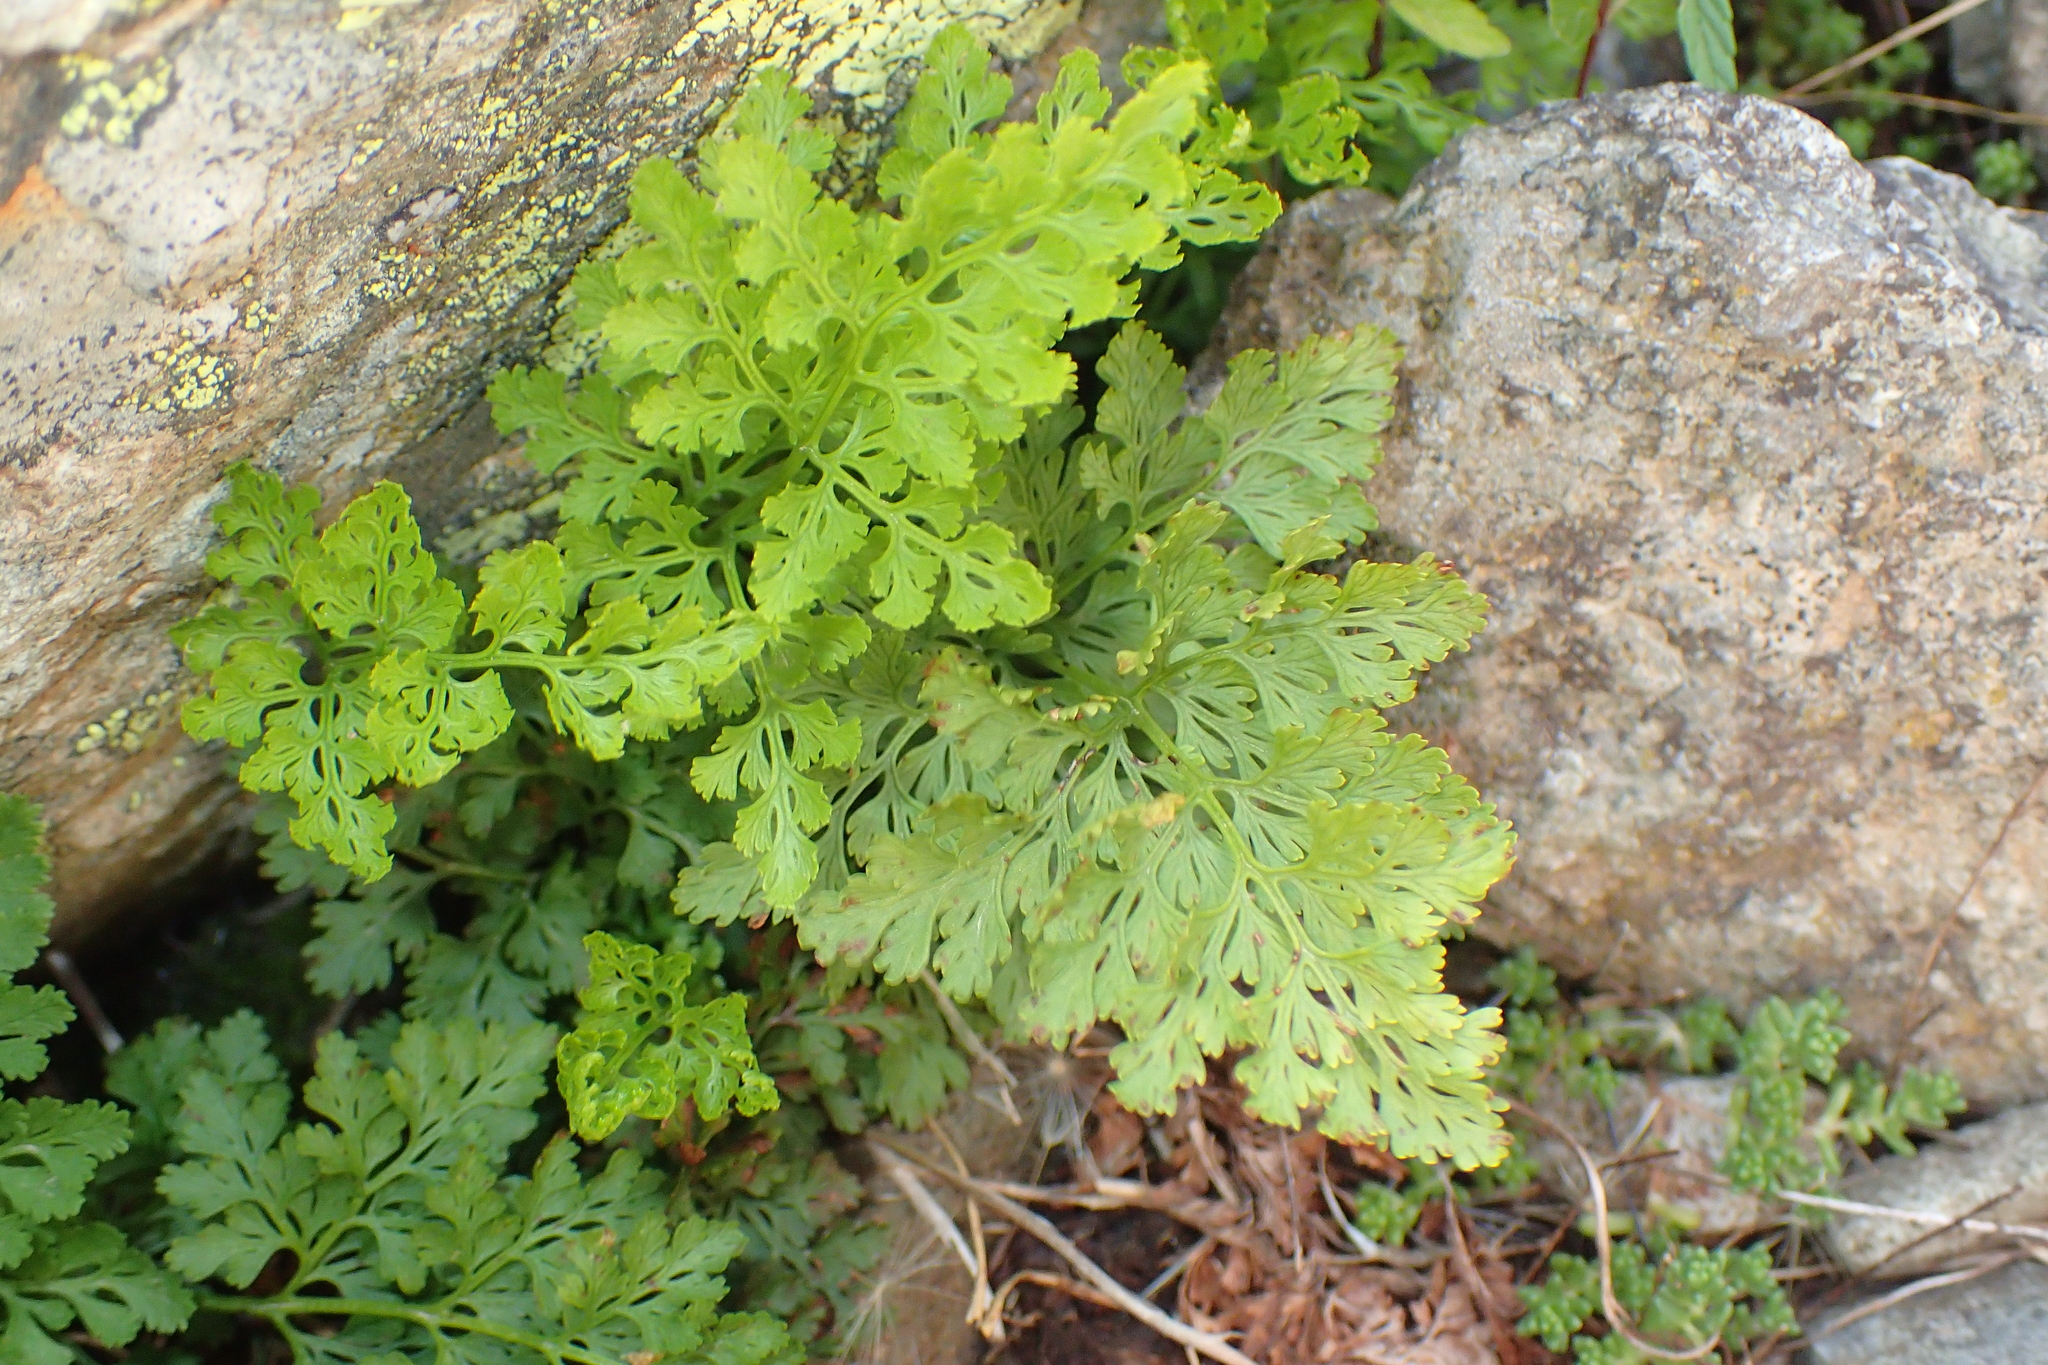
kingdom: Plantae
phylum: Tracheophyta
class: Polypodiopsida
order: Polypodiales
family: Pteridaceae
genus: Cryptogramma
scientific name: Cryptogramma crispa
